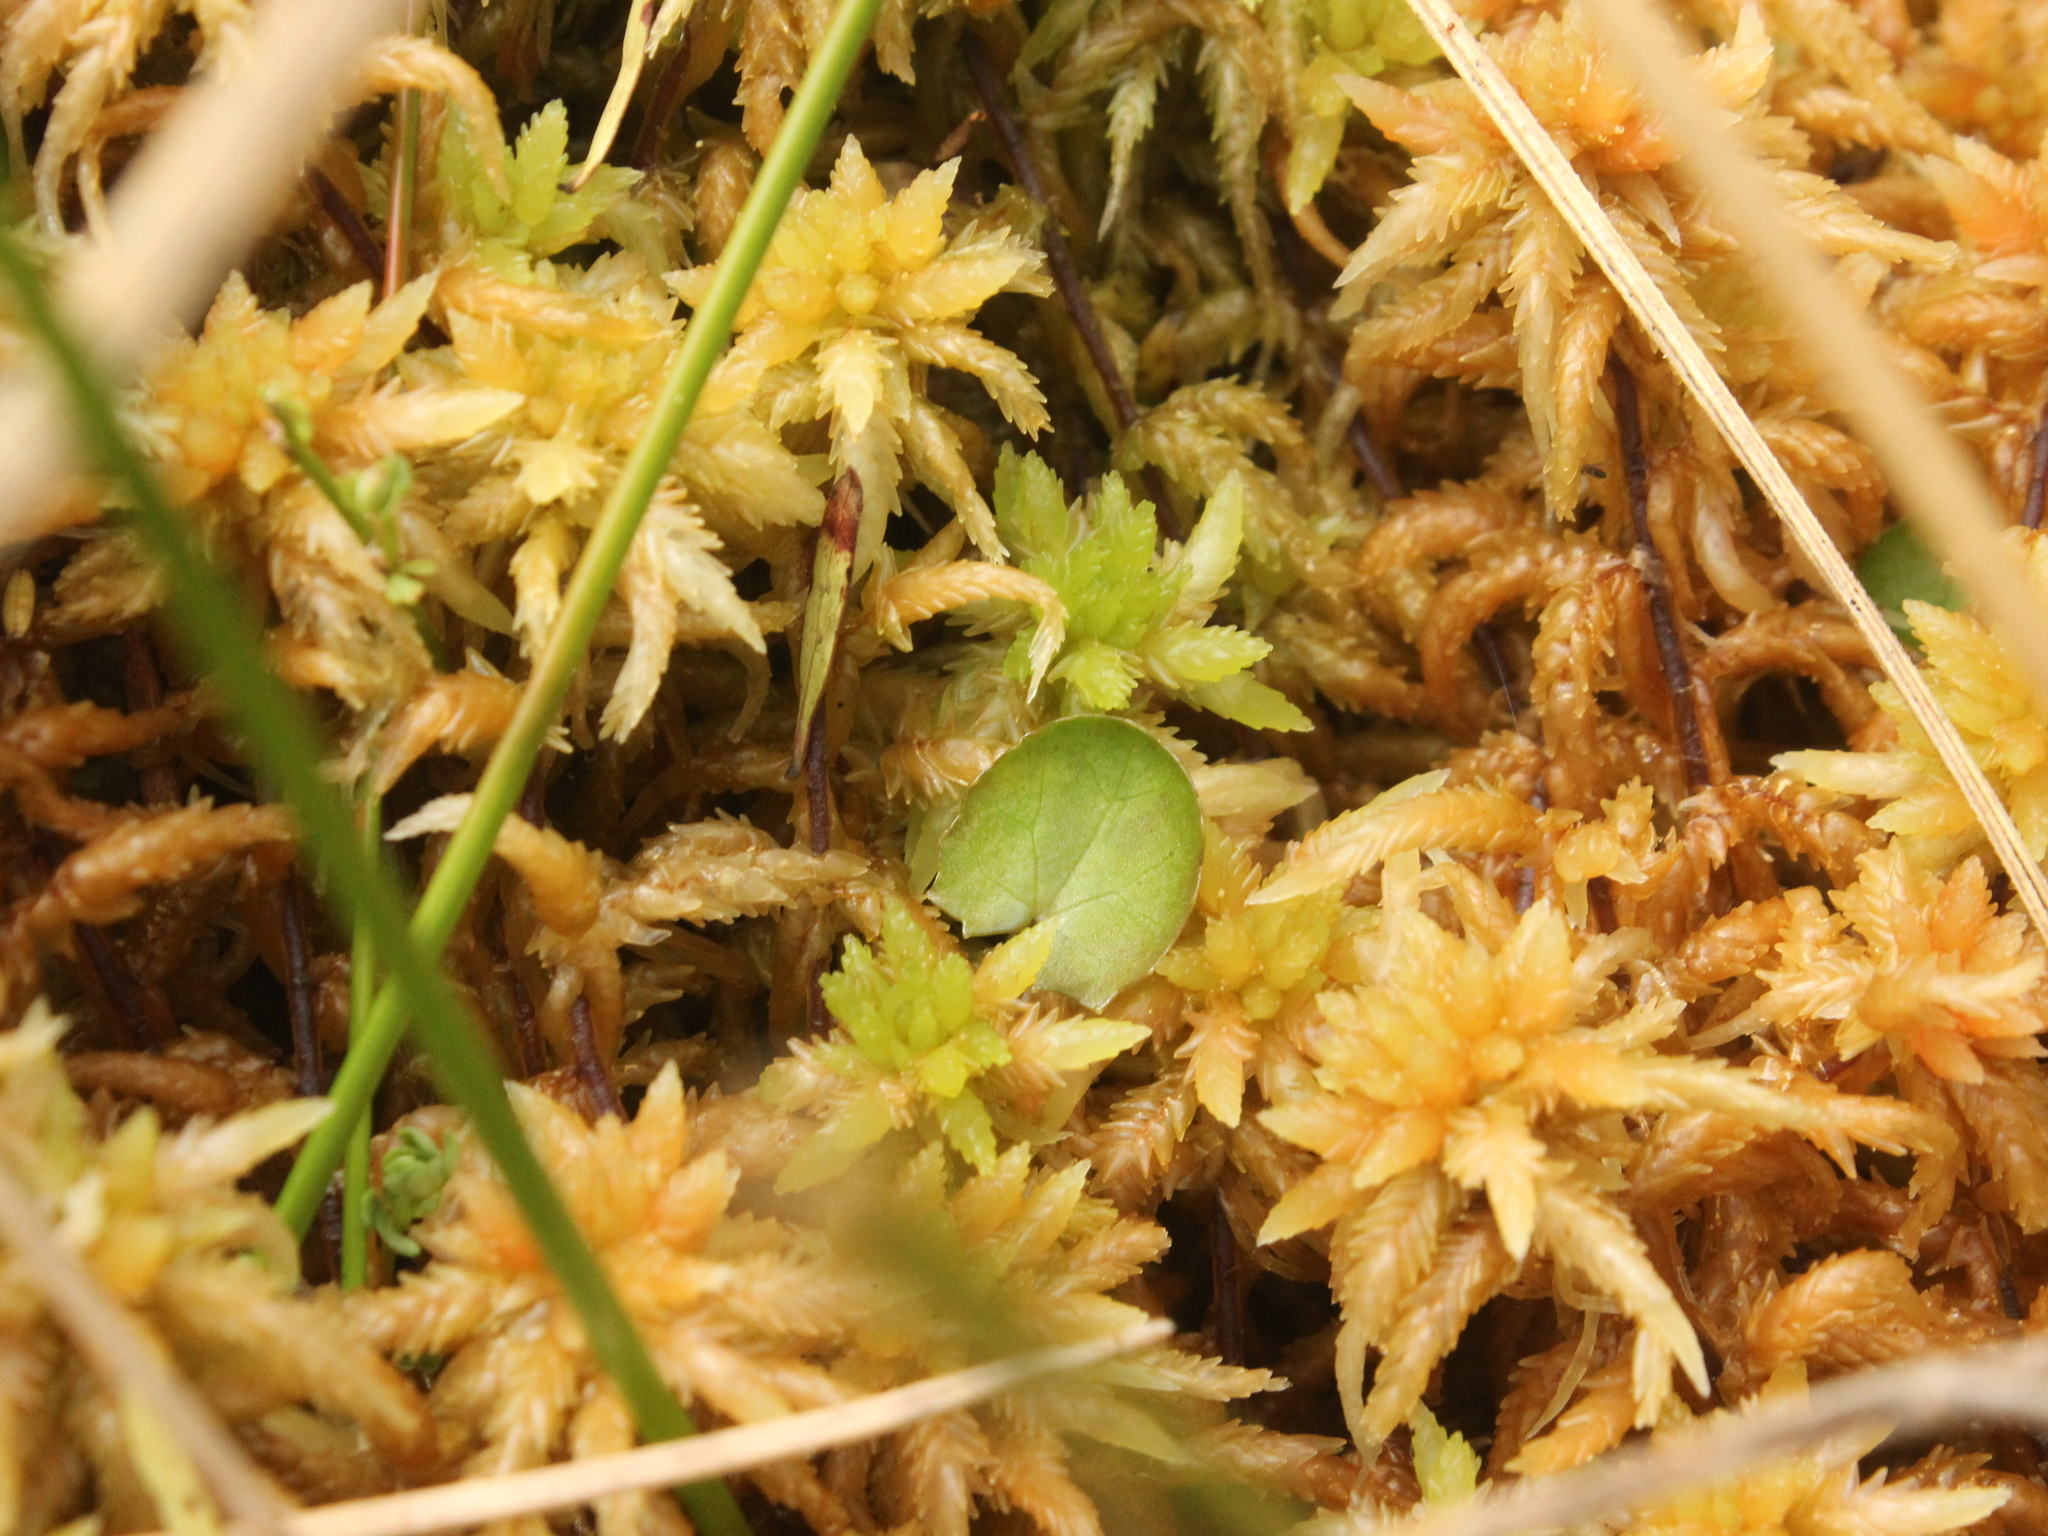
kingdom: Plantae
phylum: Tracheophyta
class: Magnoliopsida
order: Apiales
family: Apiaceae
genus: Centella
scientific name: Centella uniflora
